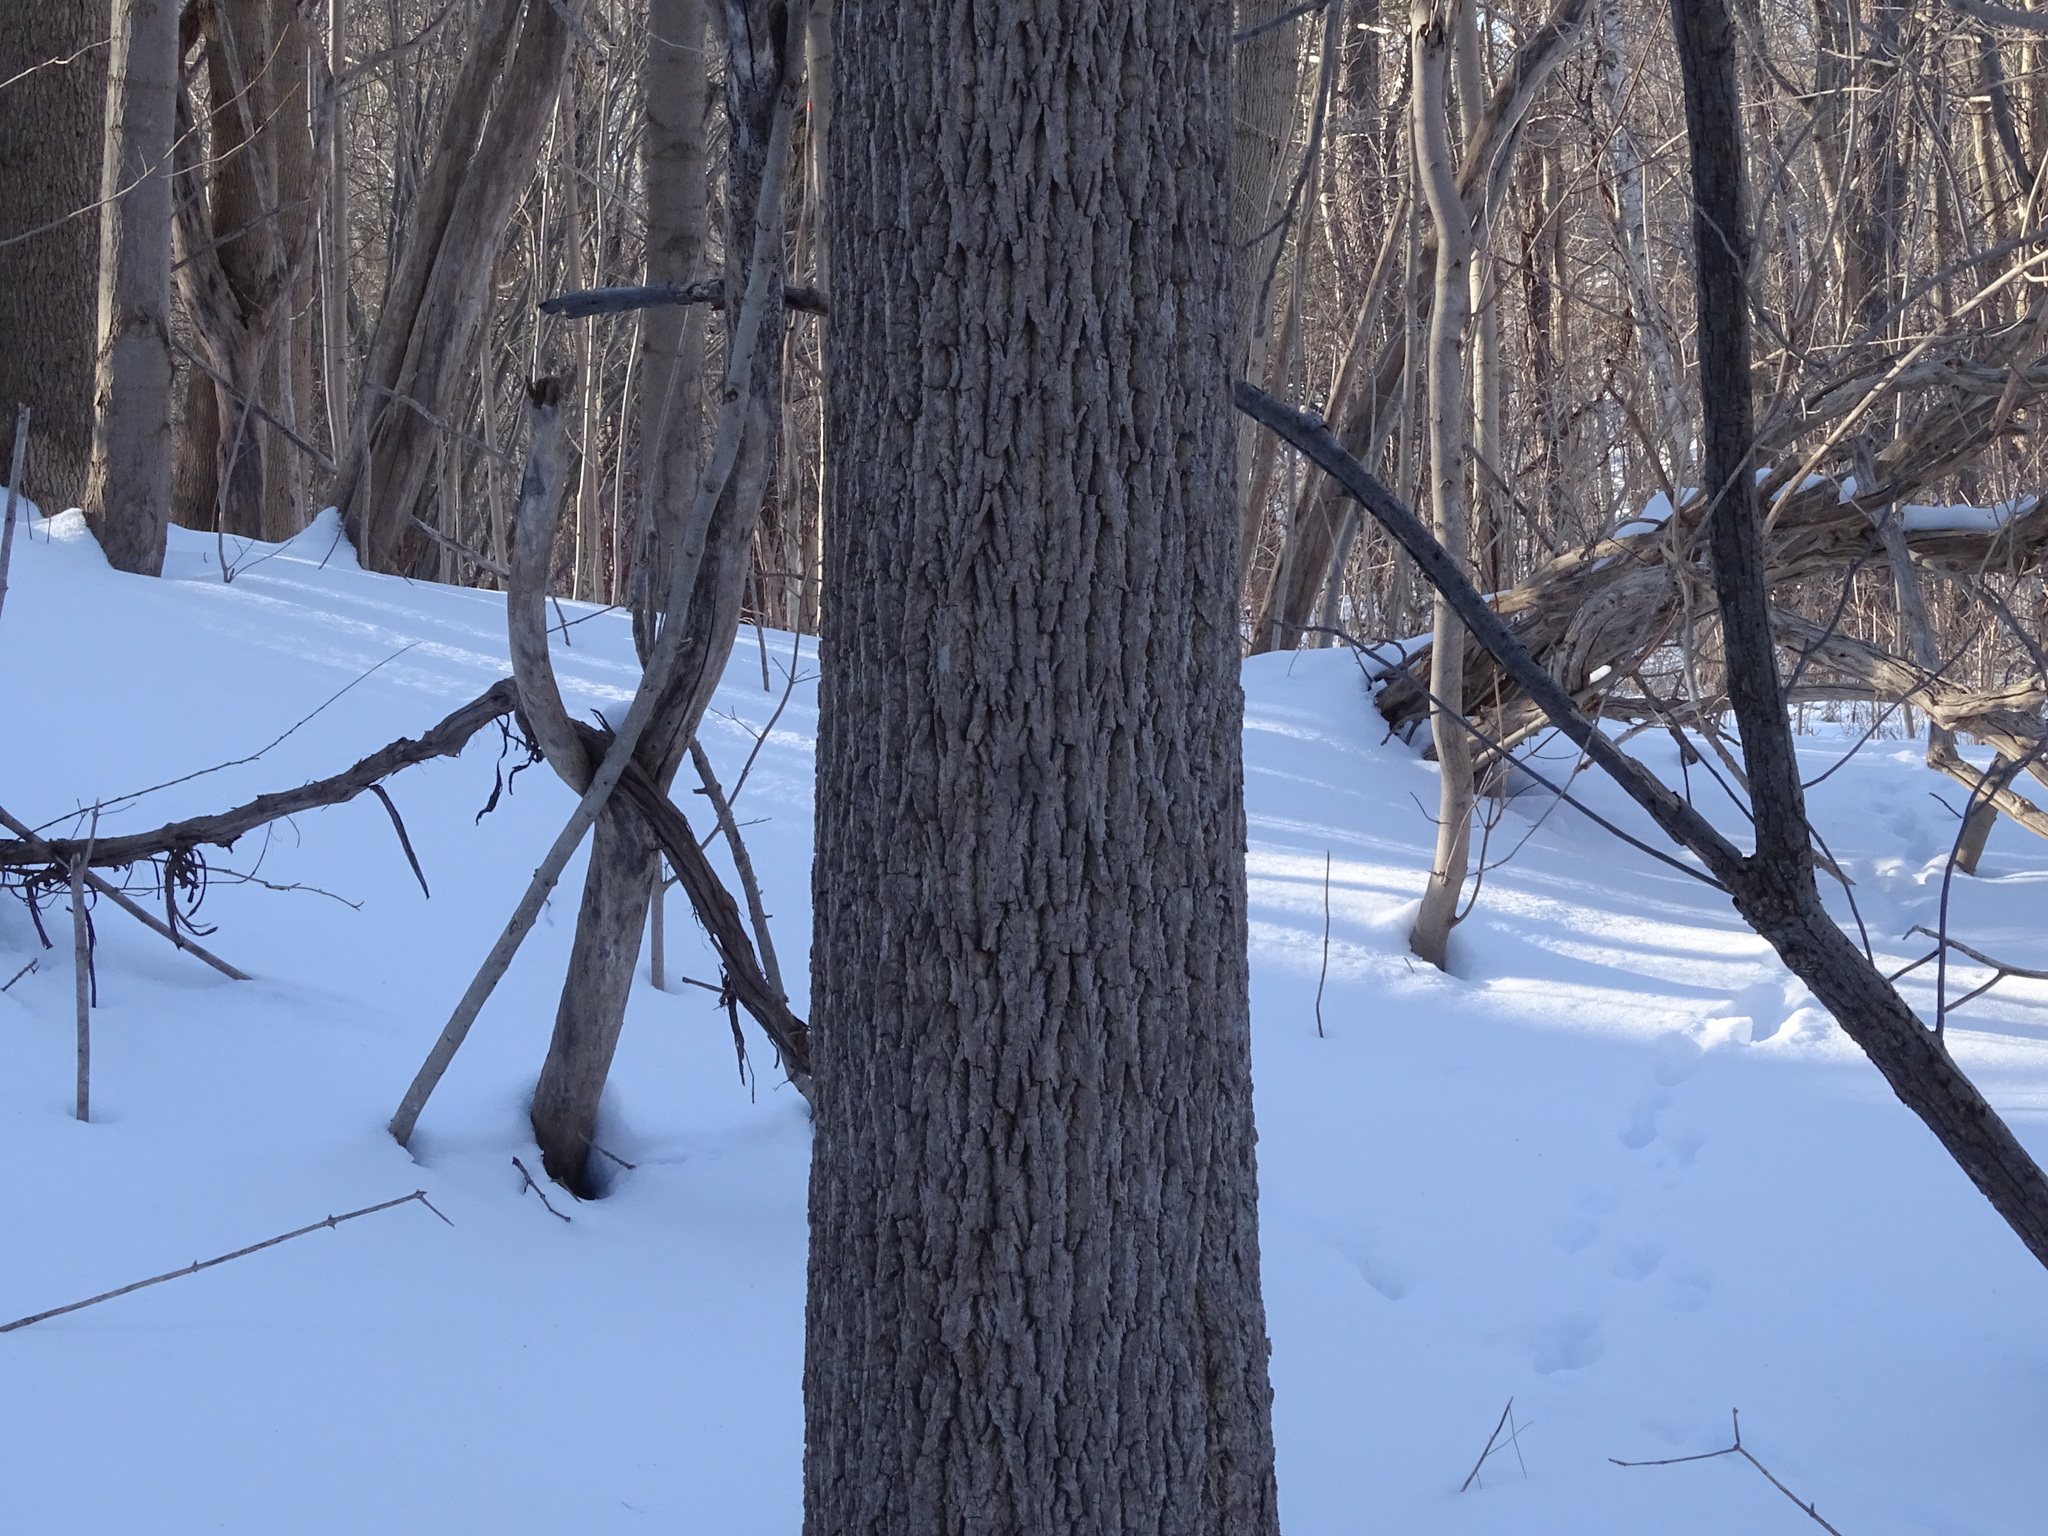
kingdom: Plantae
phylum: Tracheophyta
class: Magnoliopsida
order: Fagales
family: Juglandaceae
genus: Juglans
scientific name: Juglans nigra
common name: Black walnut
